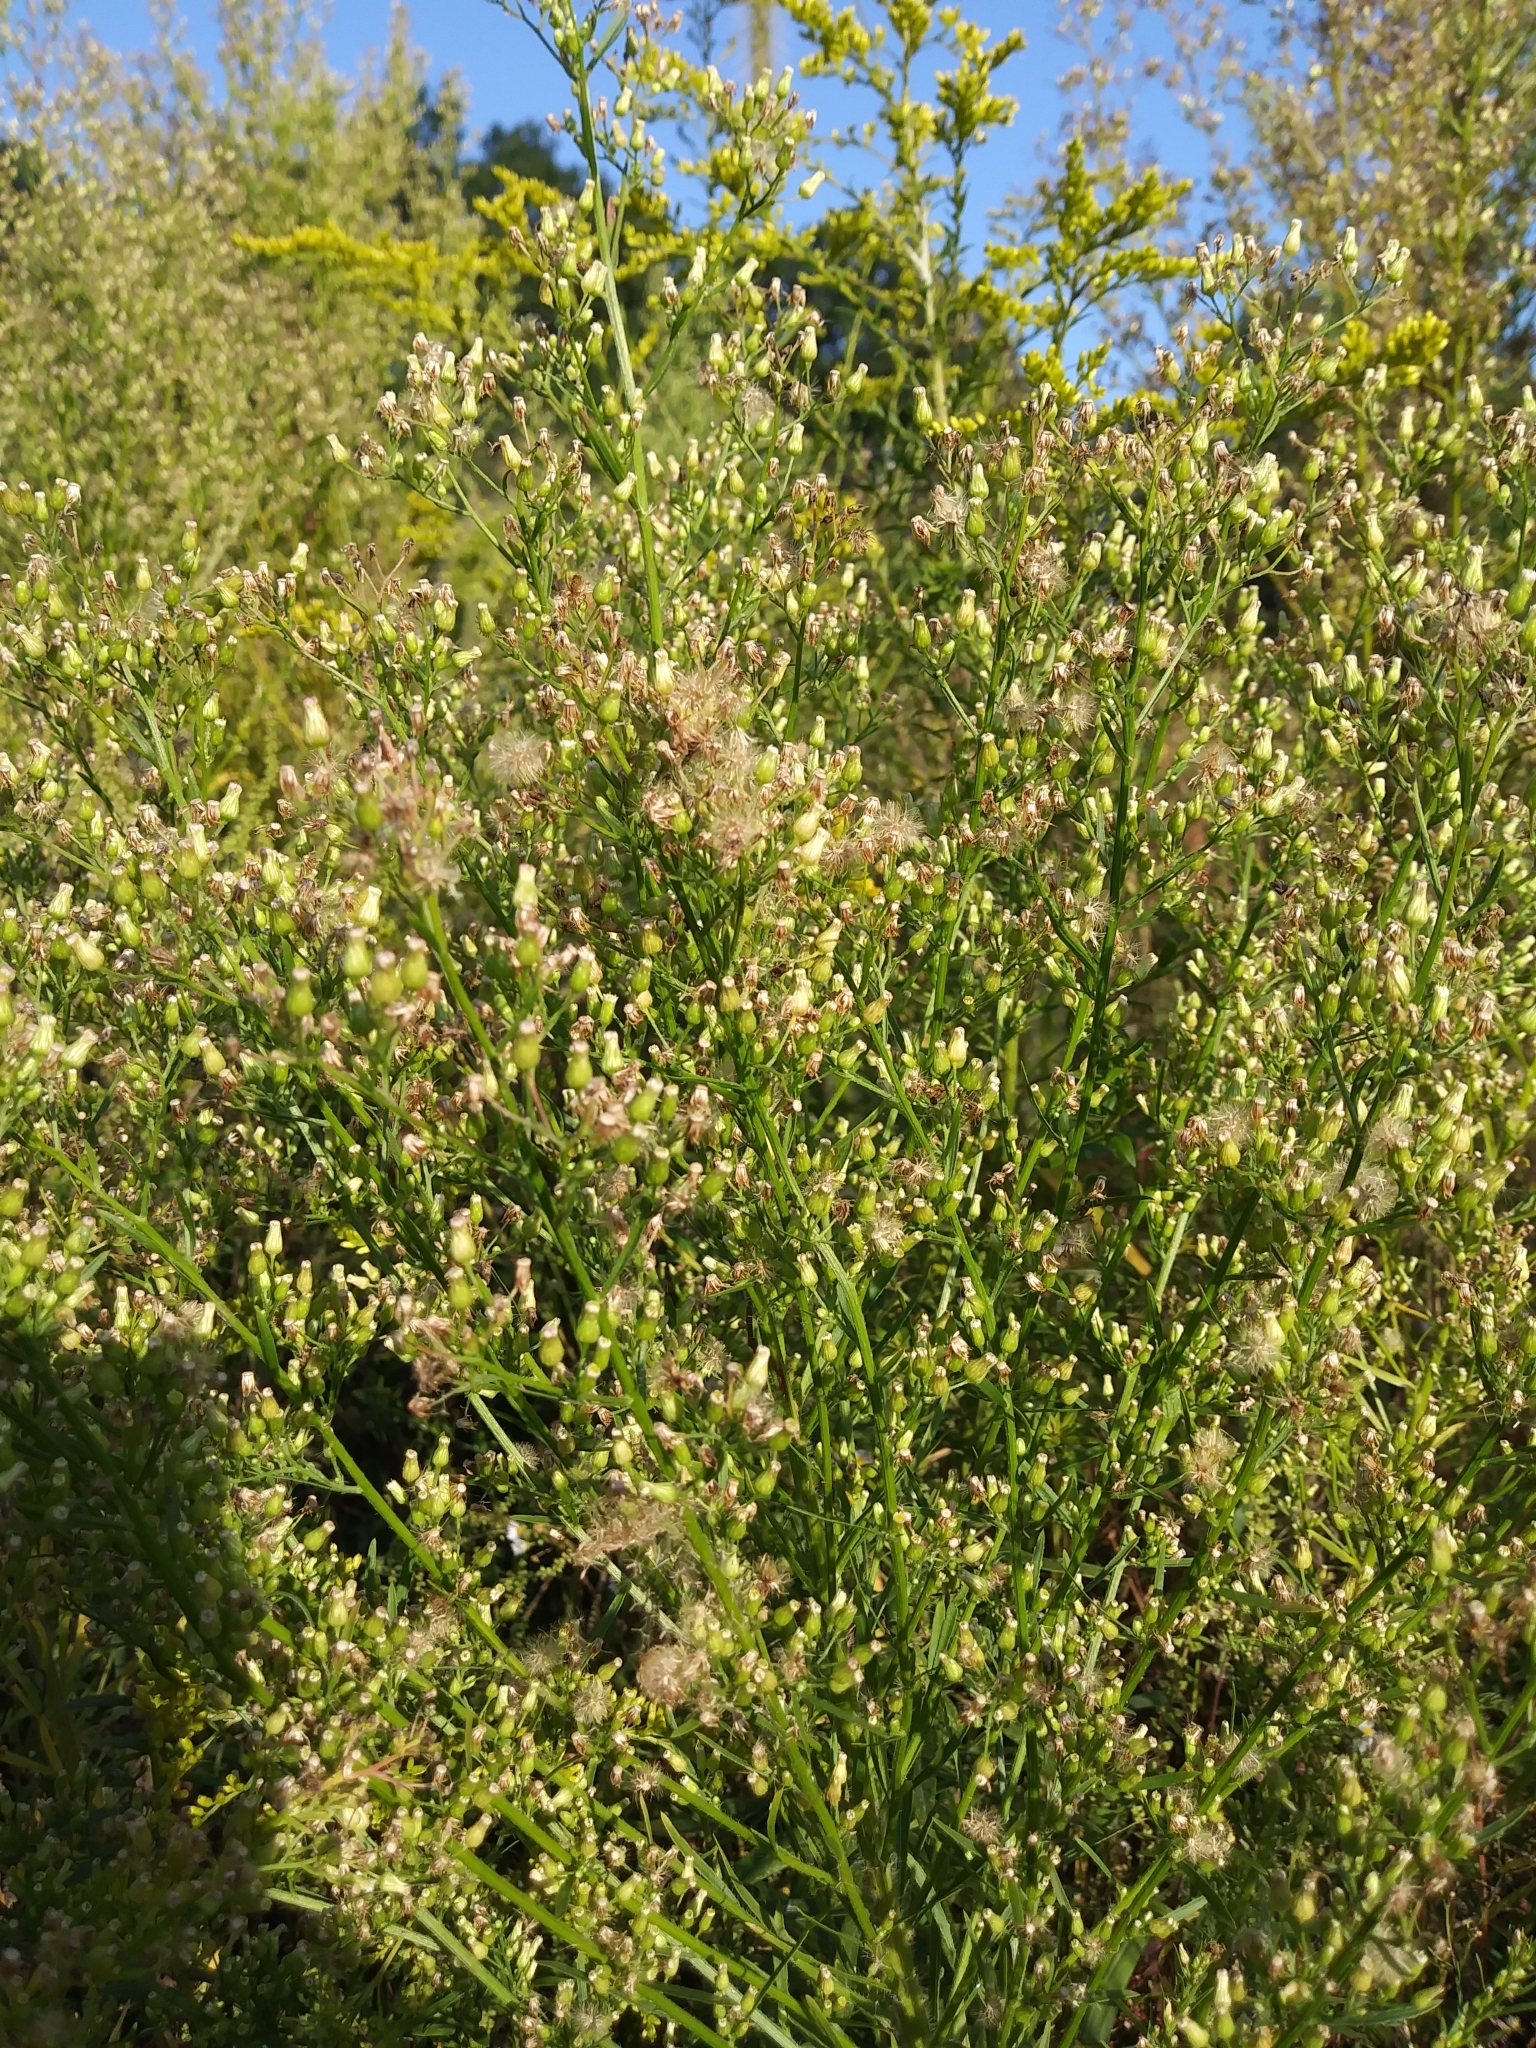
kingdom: Plantae
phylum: Tracheophyta
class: Magnoliopsida
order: Asterales
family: Asteraceae
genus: Erigeron
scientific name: Erigeron canadensis
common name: Canadian fleabane
